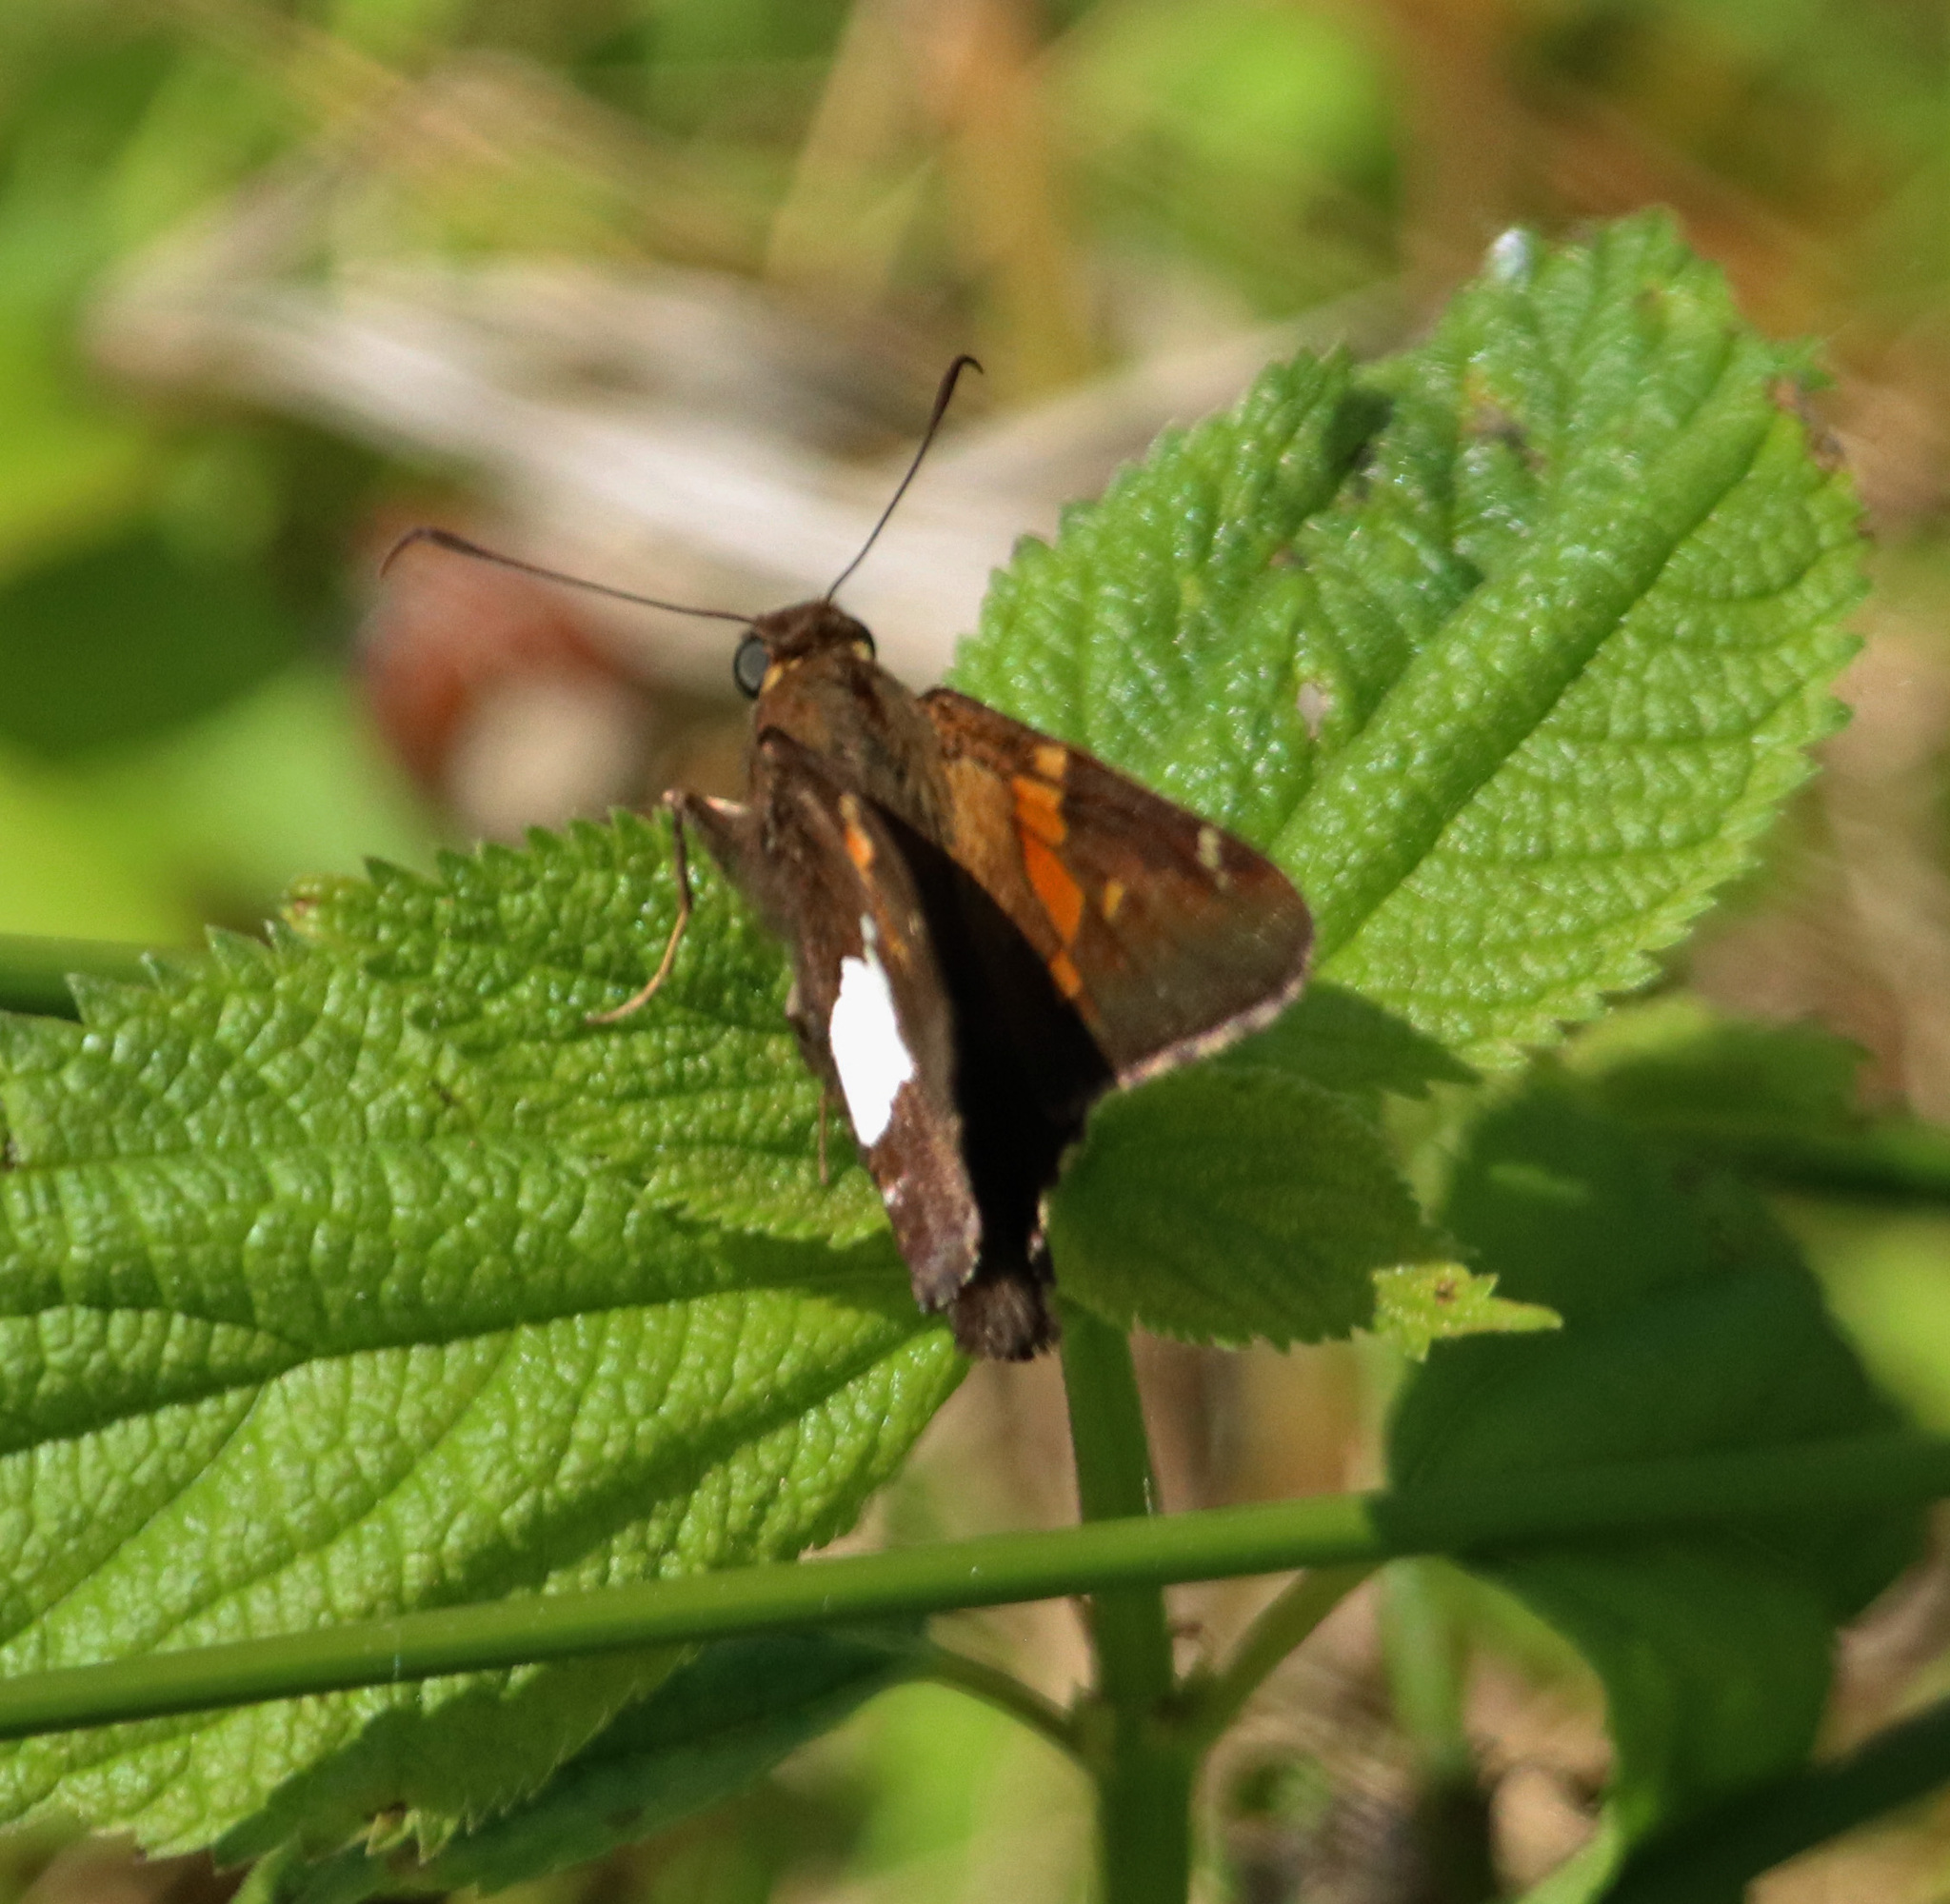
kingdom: Animalia
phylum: Arthropoda
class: Insecta
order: Lepidoptera
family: Hesperiidae
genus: Epargyreus
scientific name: Epargyreus clarus
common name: Silver-spotted skipper
